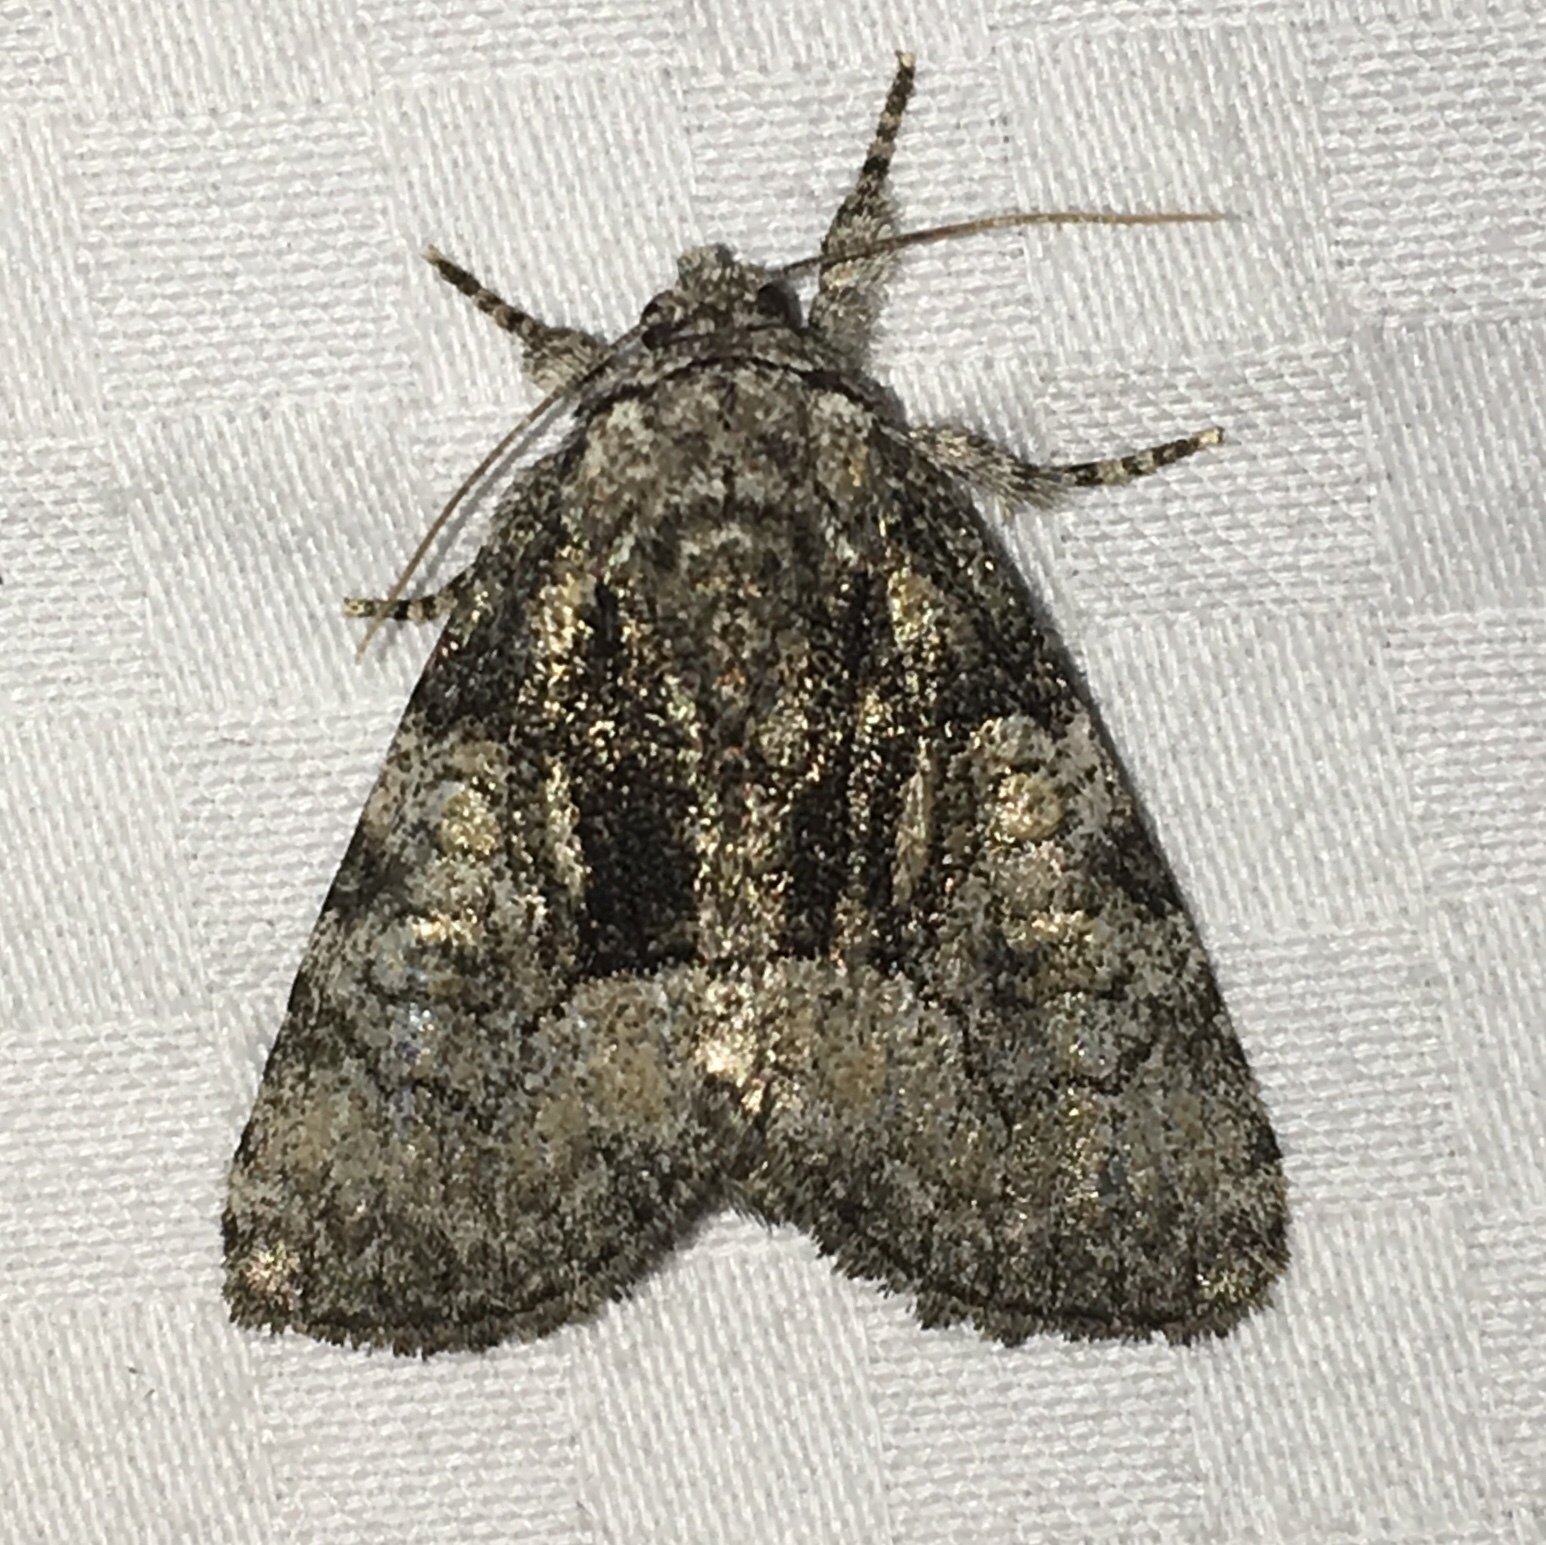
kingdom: Animalia
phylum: Arthropoda
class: Insecta
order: Lepidoptera
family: Noctuidae
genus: Raphia
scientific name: Raphia frater
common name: Brother
